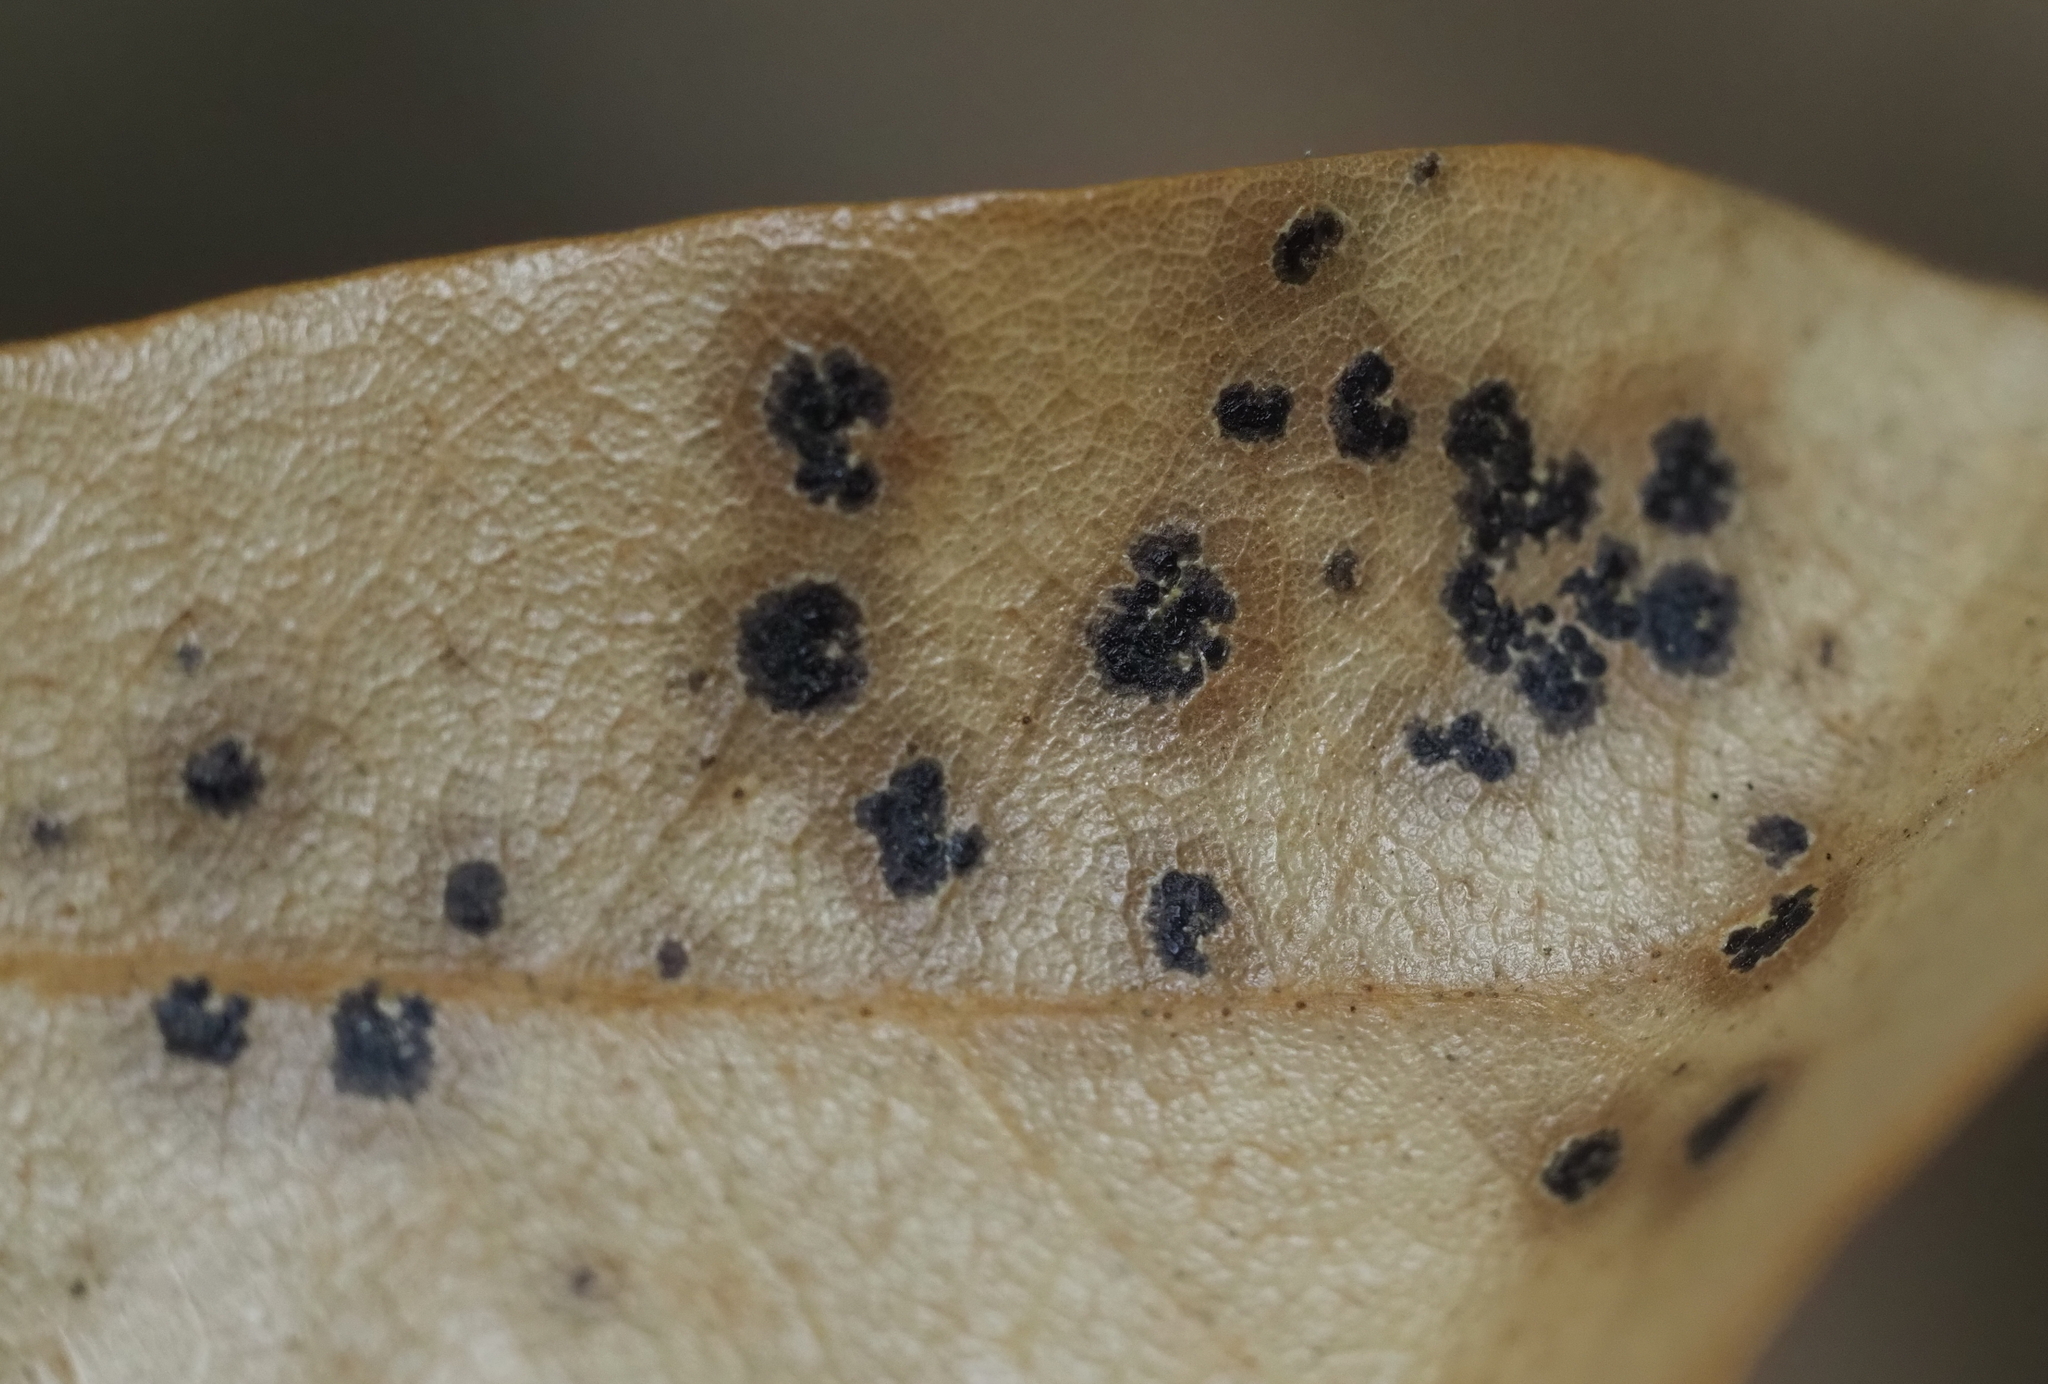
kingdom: Fungi
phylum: Ascomycota
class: Sordariomycetes
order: Phyllachorales
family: Phyllachoraceae
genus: Trabutia
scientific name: Trabutia quercina
